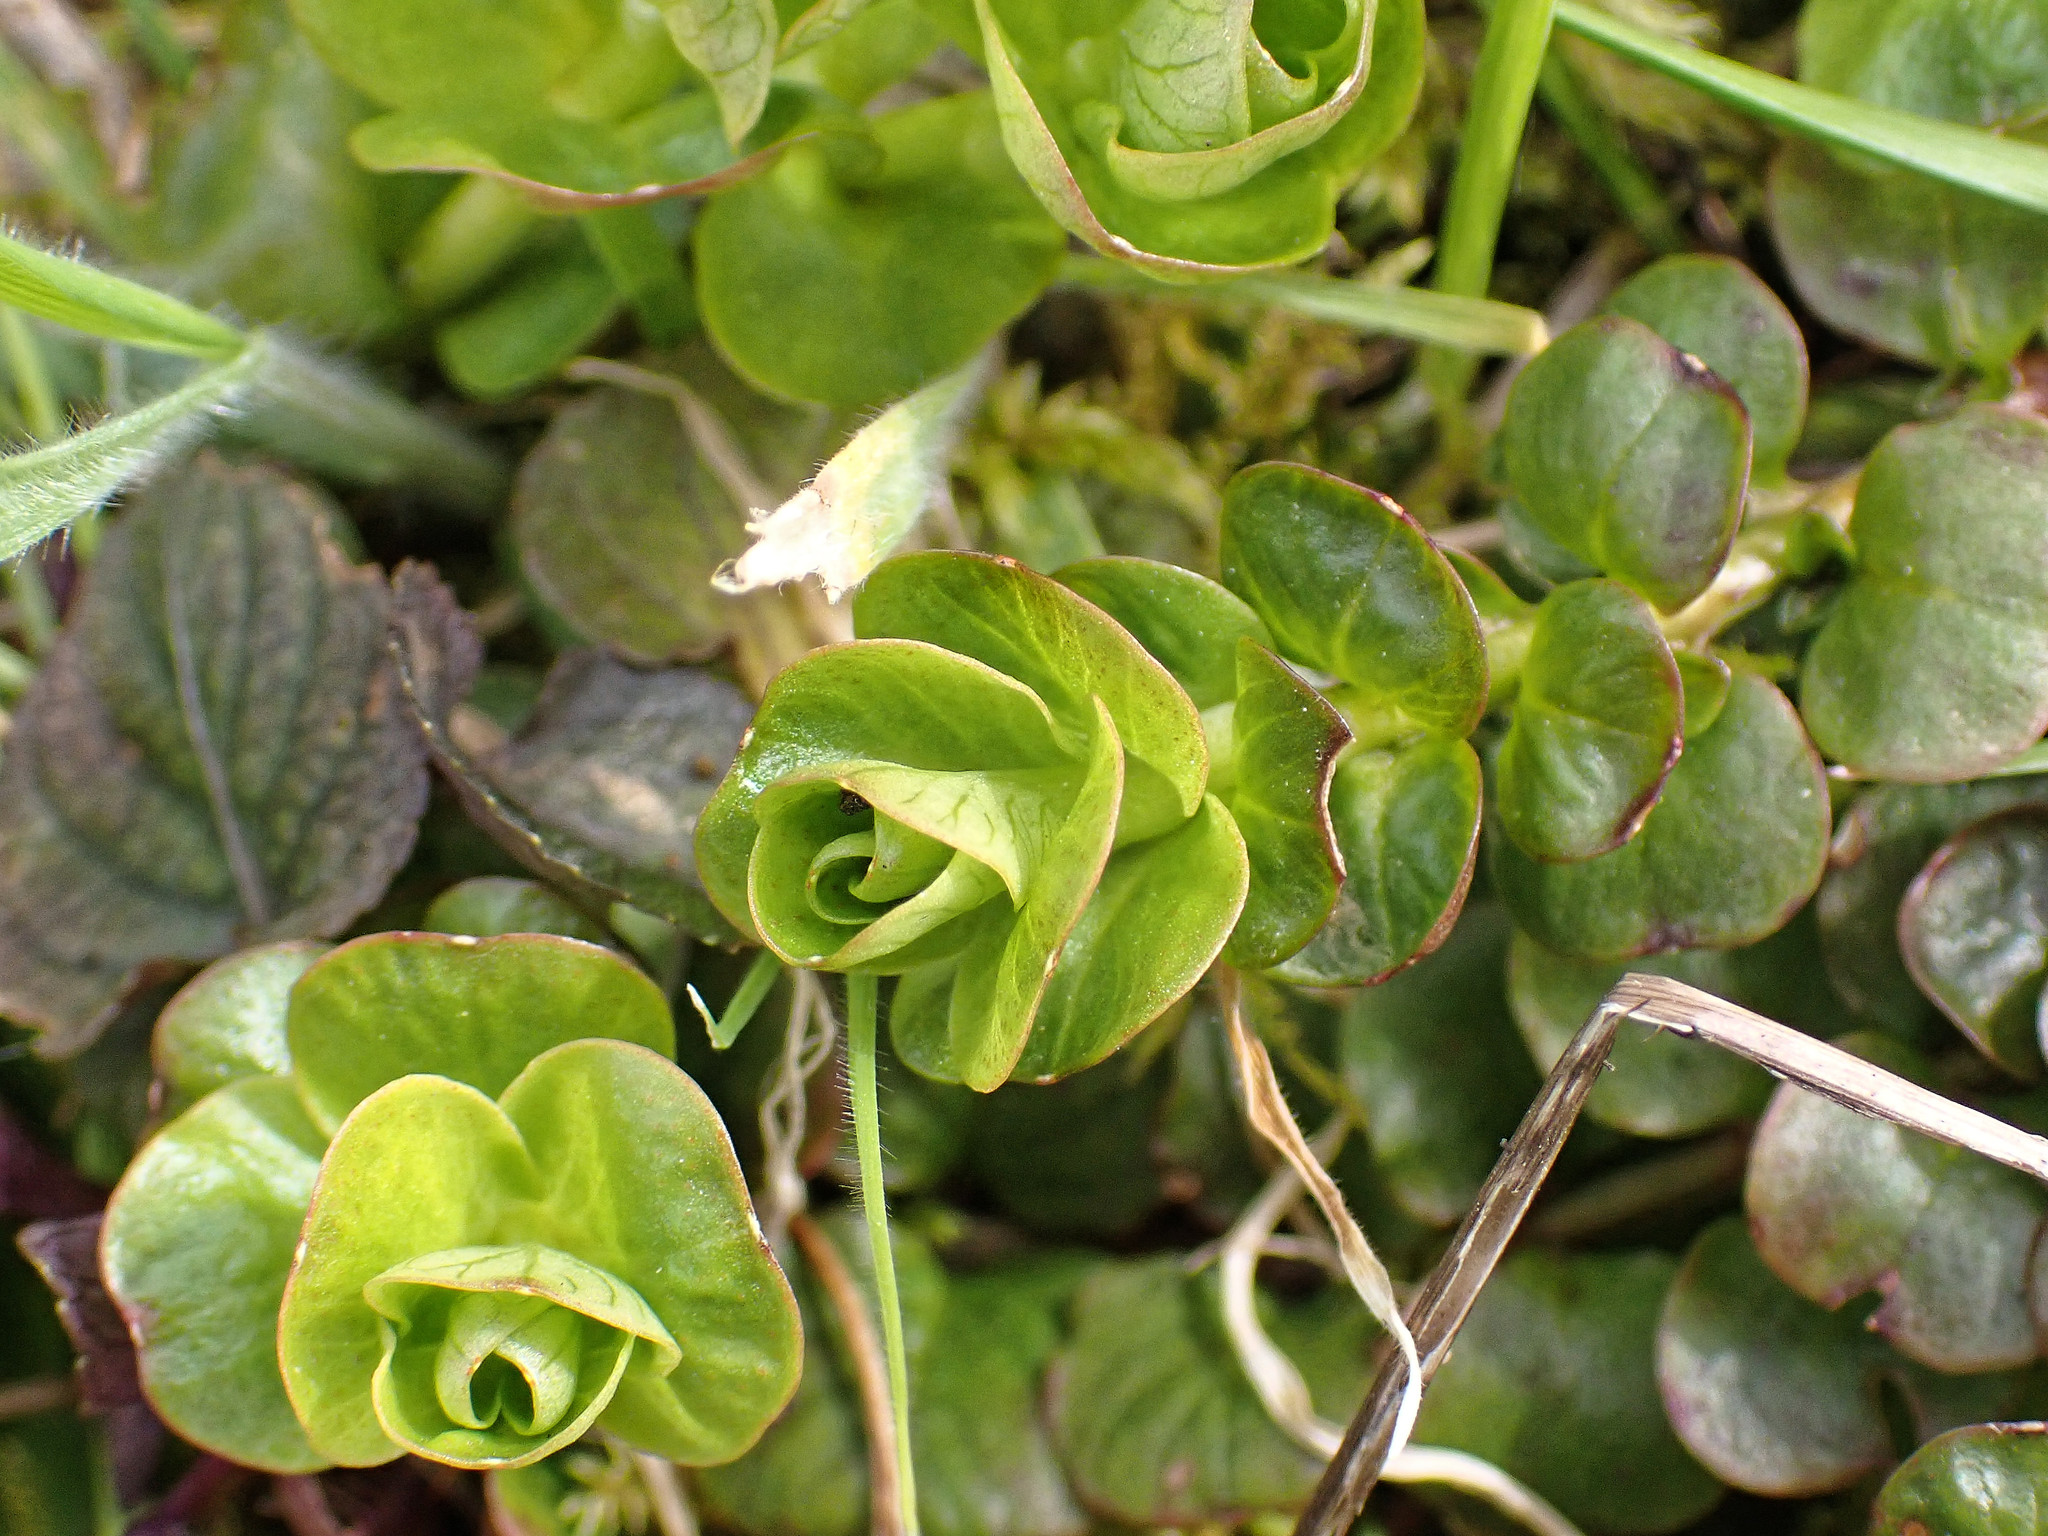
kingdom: Plantae
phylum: Tracheophyta
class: Magnoliopsida
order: Ericales
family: Primulaceae
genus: Lysimachia
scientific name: Lysimachia nummularia
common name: Moneywort
